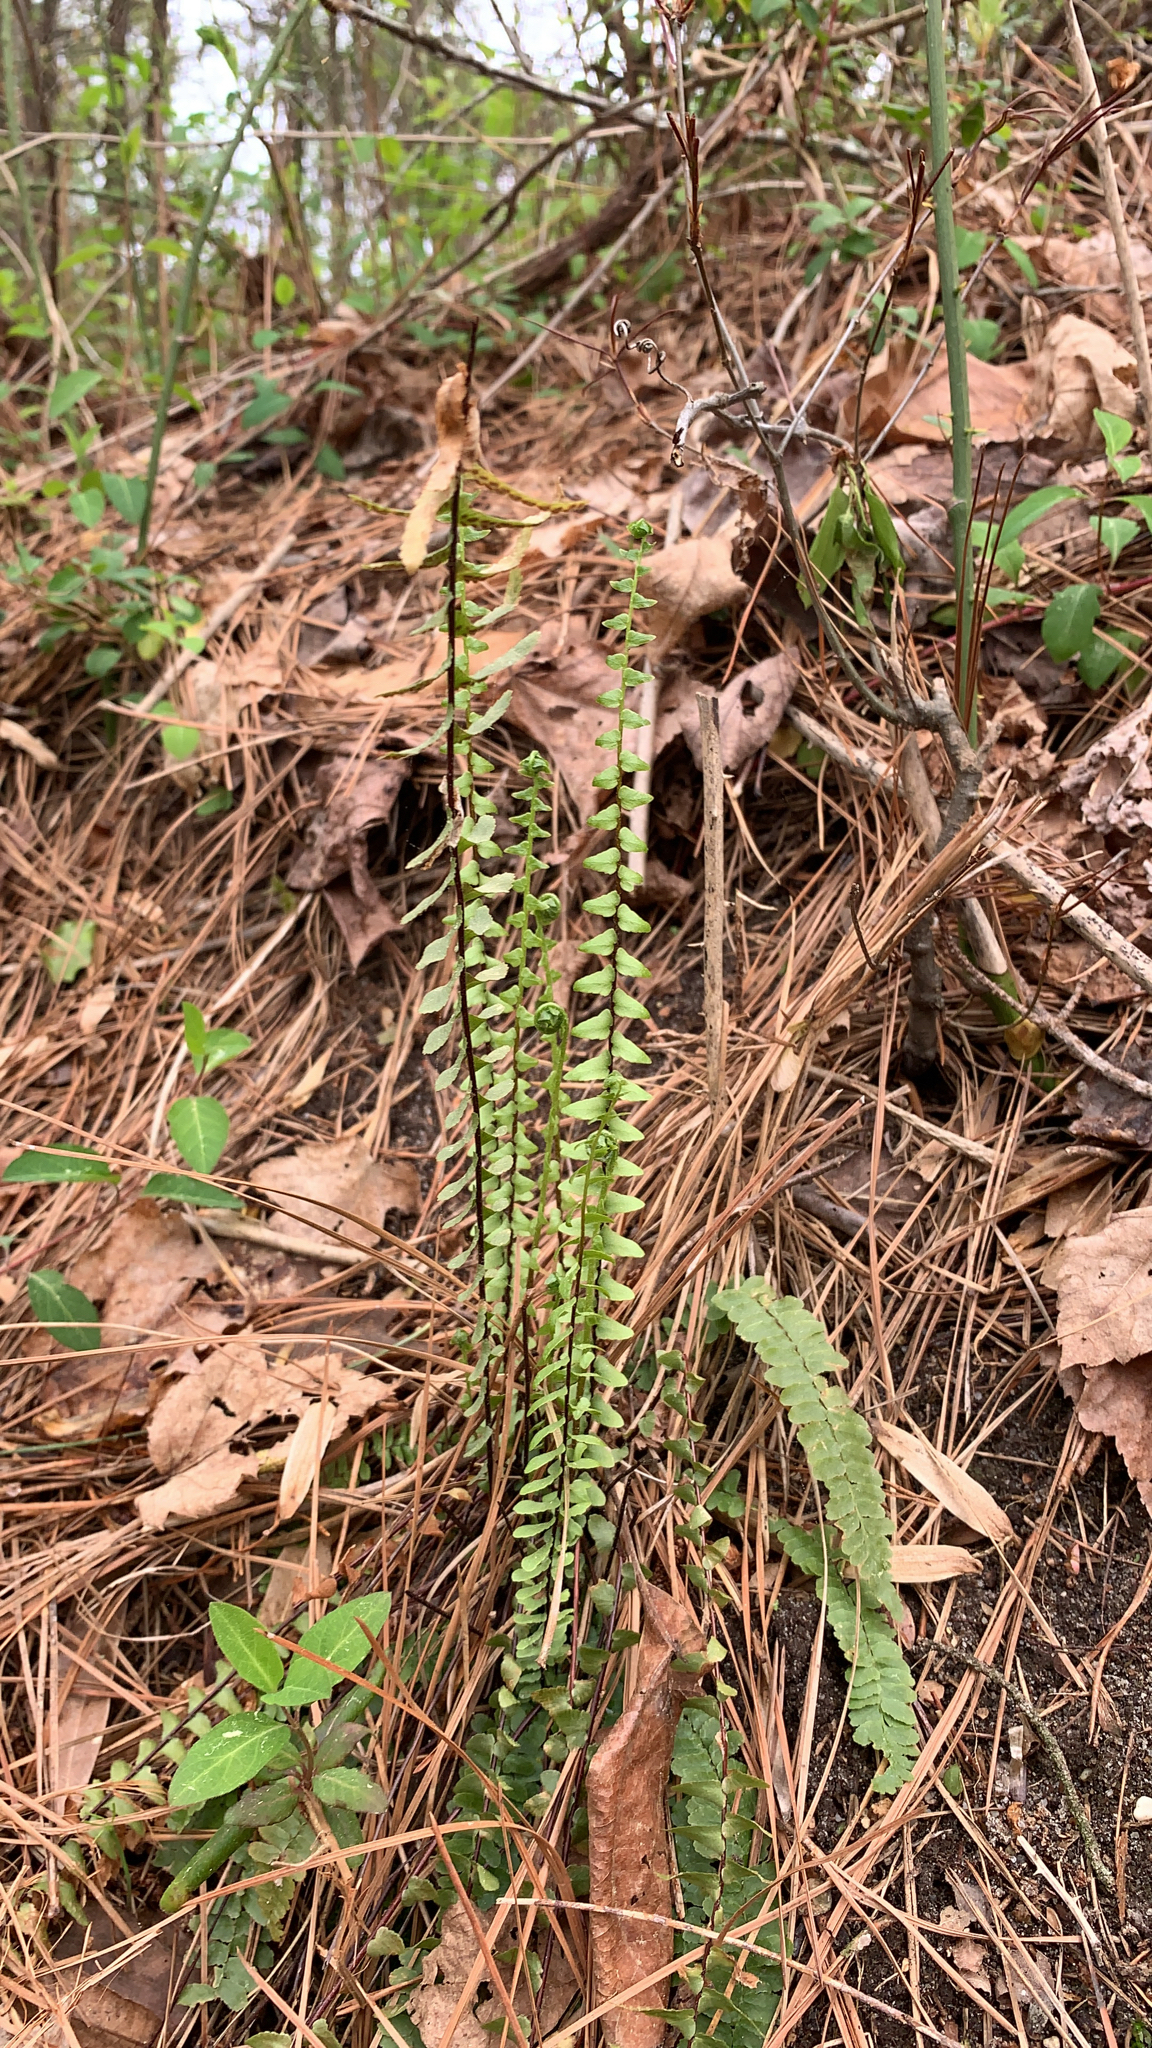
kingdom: Plantae
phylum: Tracheophyta
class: Polypodiopsida
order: Polypodiales
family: Aspleniaceae
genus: Asplenium
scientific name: Asplenium platyneuron
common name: Ebony spleenwort
